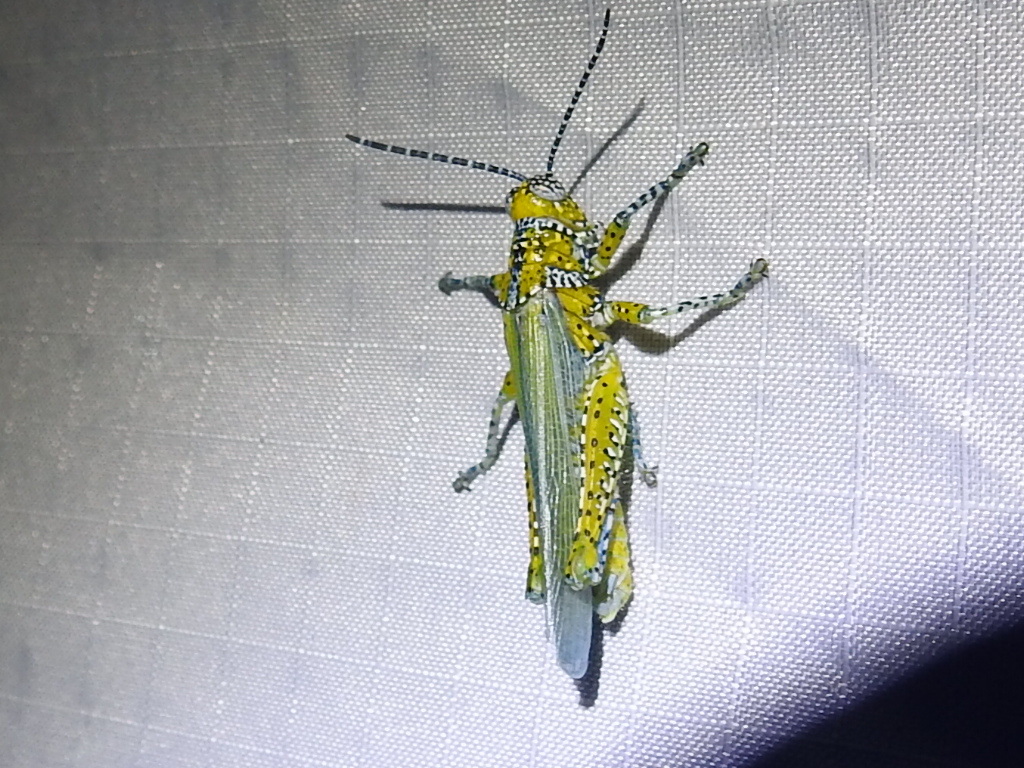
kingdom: Animalia
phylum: Arthropoda
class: Insecta
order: Orthoptera
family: Acrididae
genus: Poecilotettix
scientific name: Poecilotettix pantherinus
